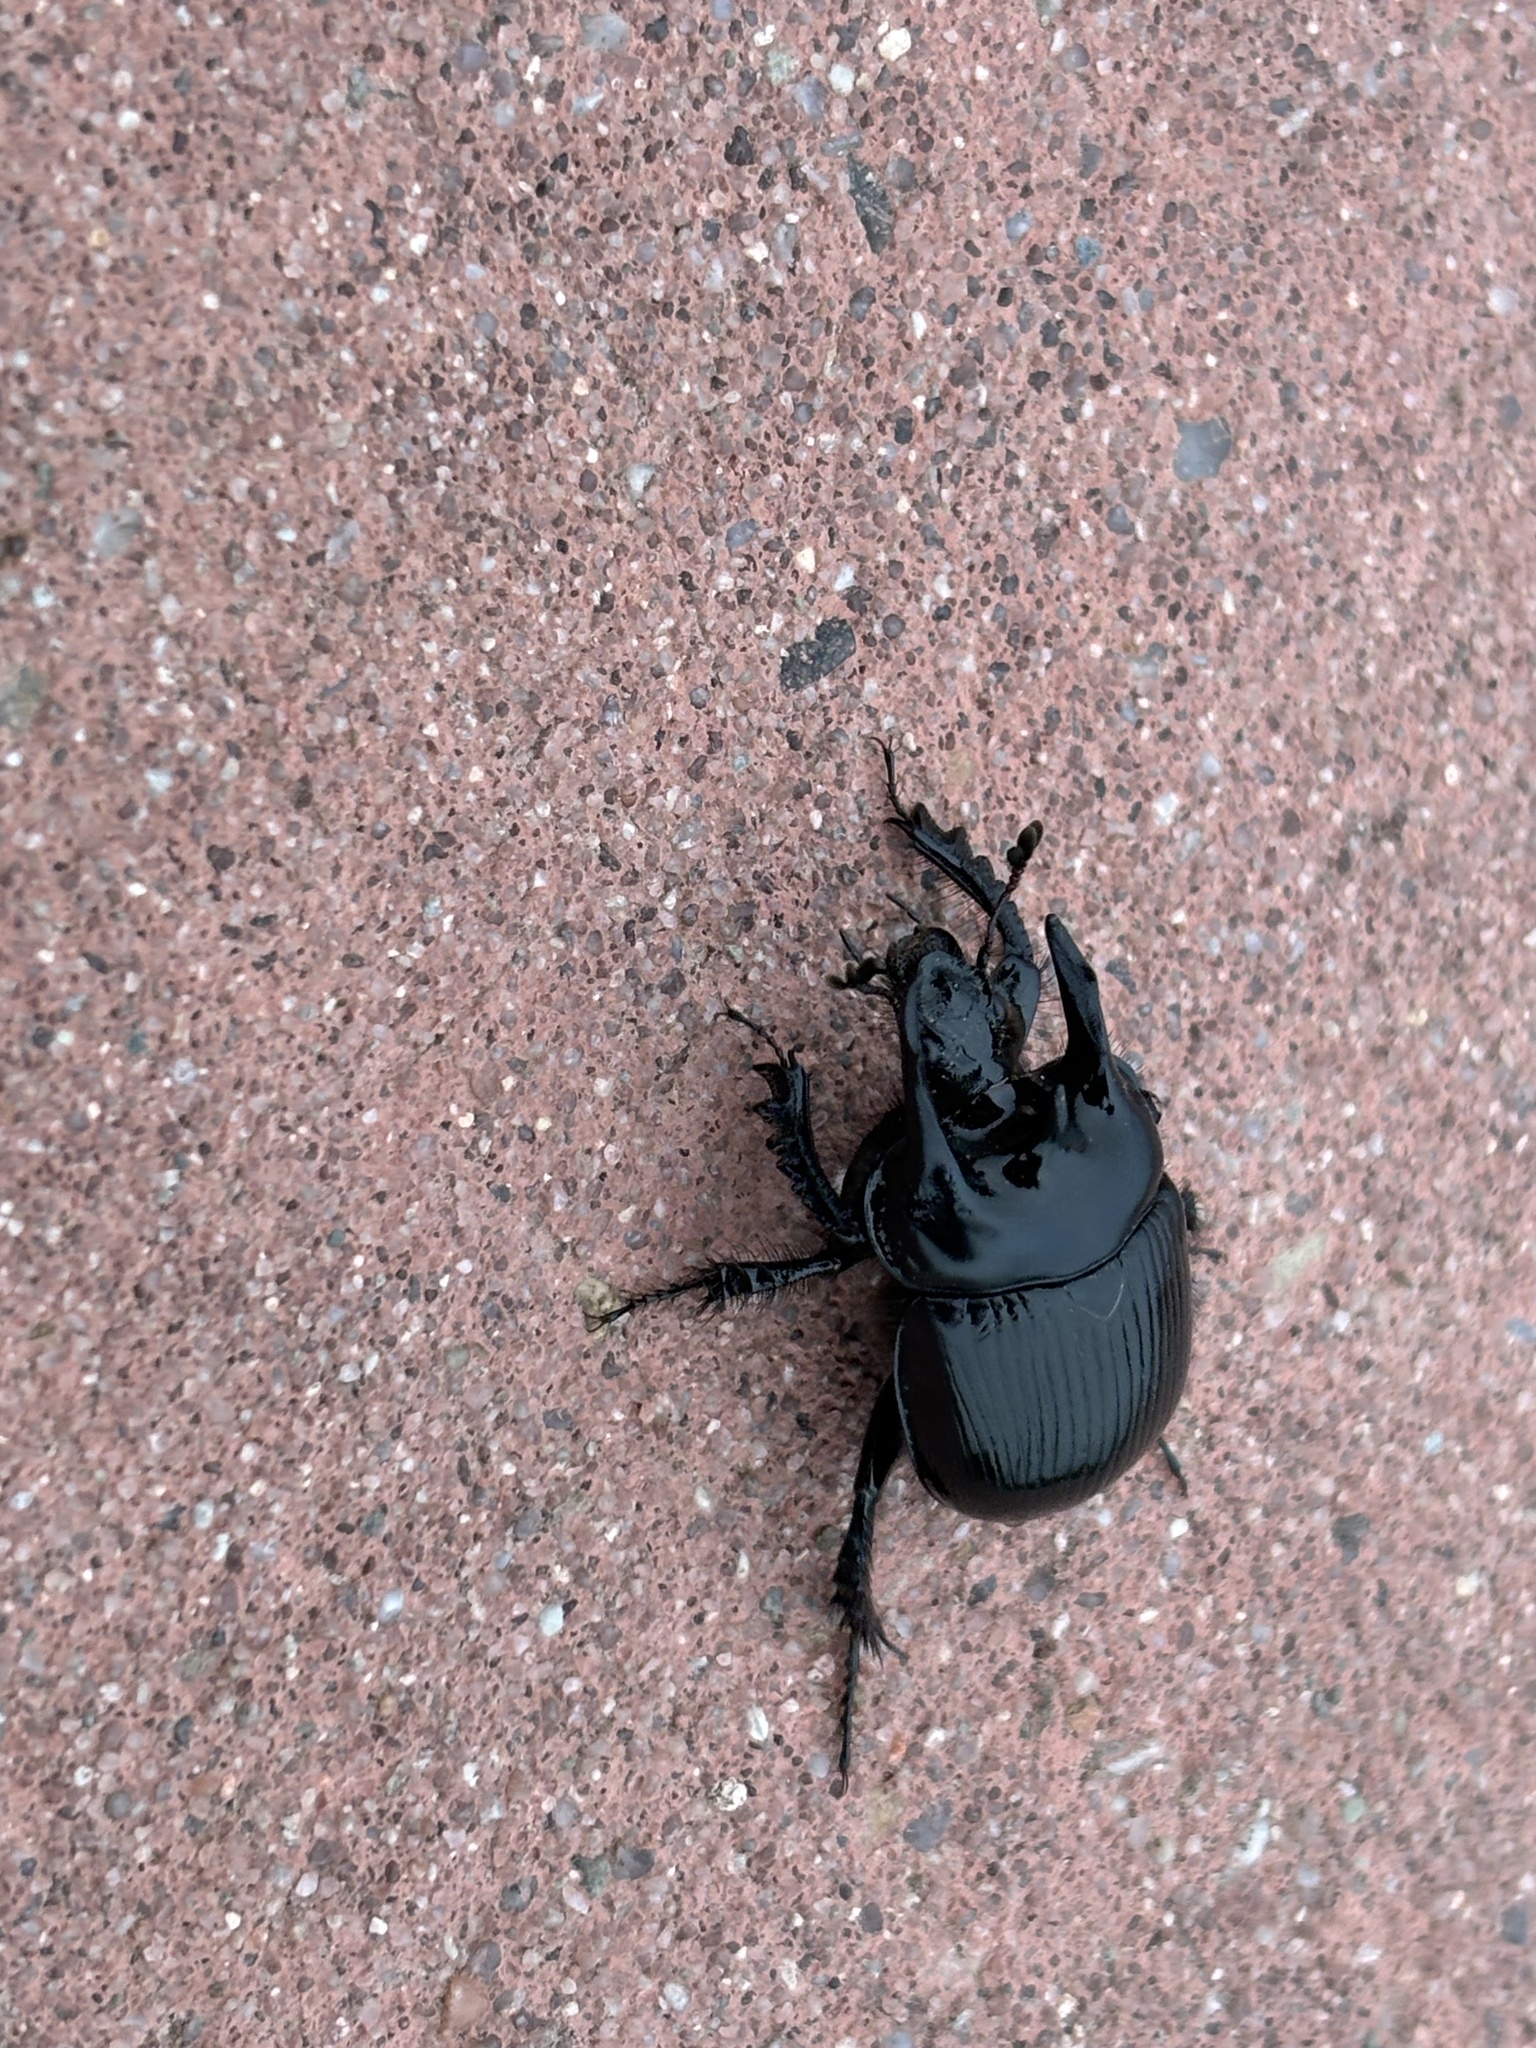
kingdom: Animalia
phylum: Arthropoda
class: Insecta
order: Coleoptera
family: Geotrupidae
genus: Typhaeus
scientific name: Typhaeus typhoeus
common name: Minotaur beetle
